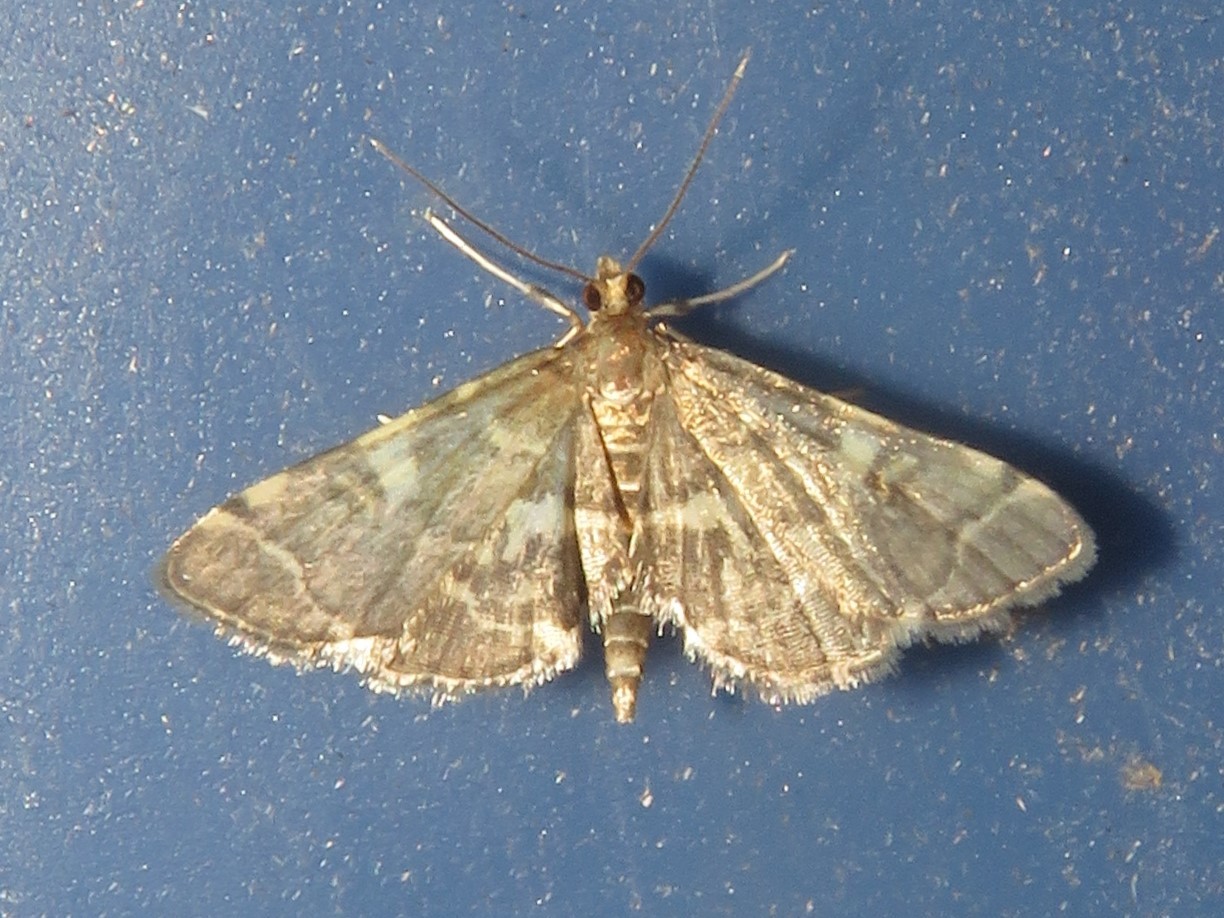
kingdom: Animalia
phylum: Arthropoda
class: Insecta
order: Lepidoptera
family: Crambidae
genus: Anageshna
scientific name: Anageshna primordialis
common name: Yellow-spotted webworm moth
